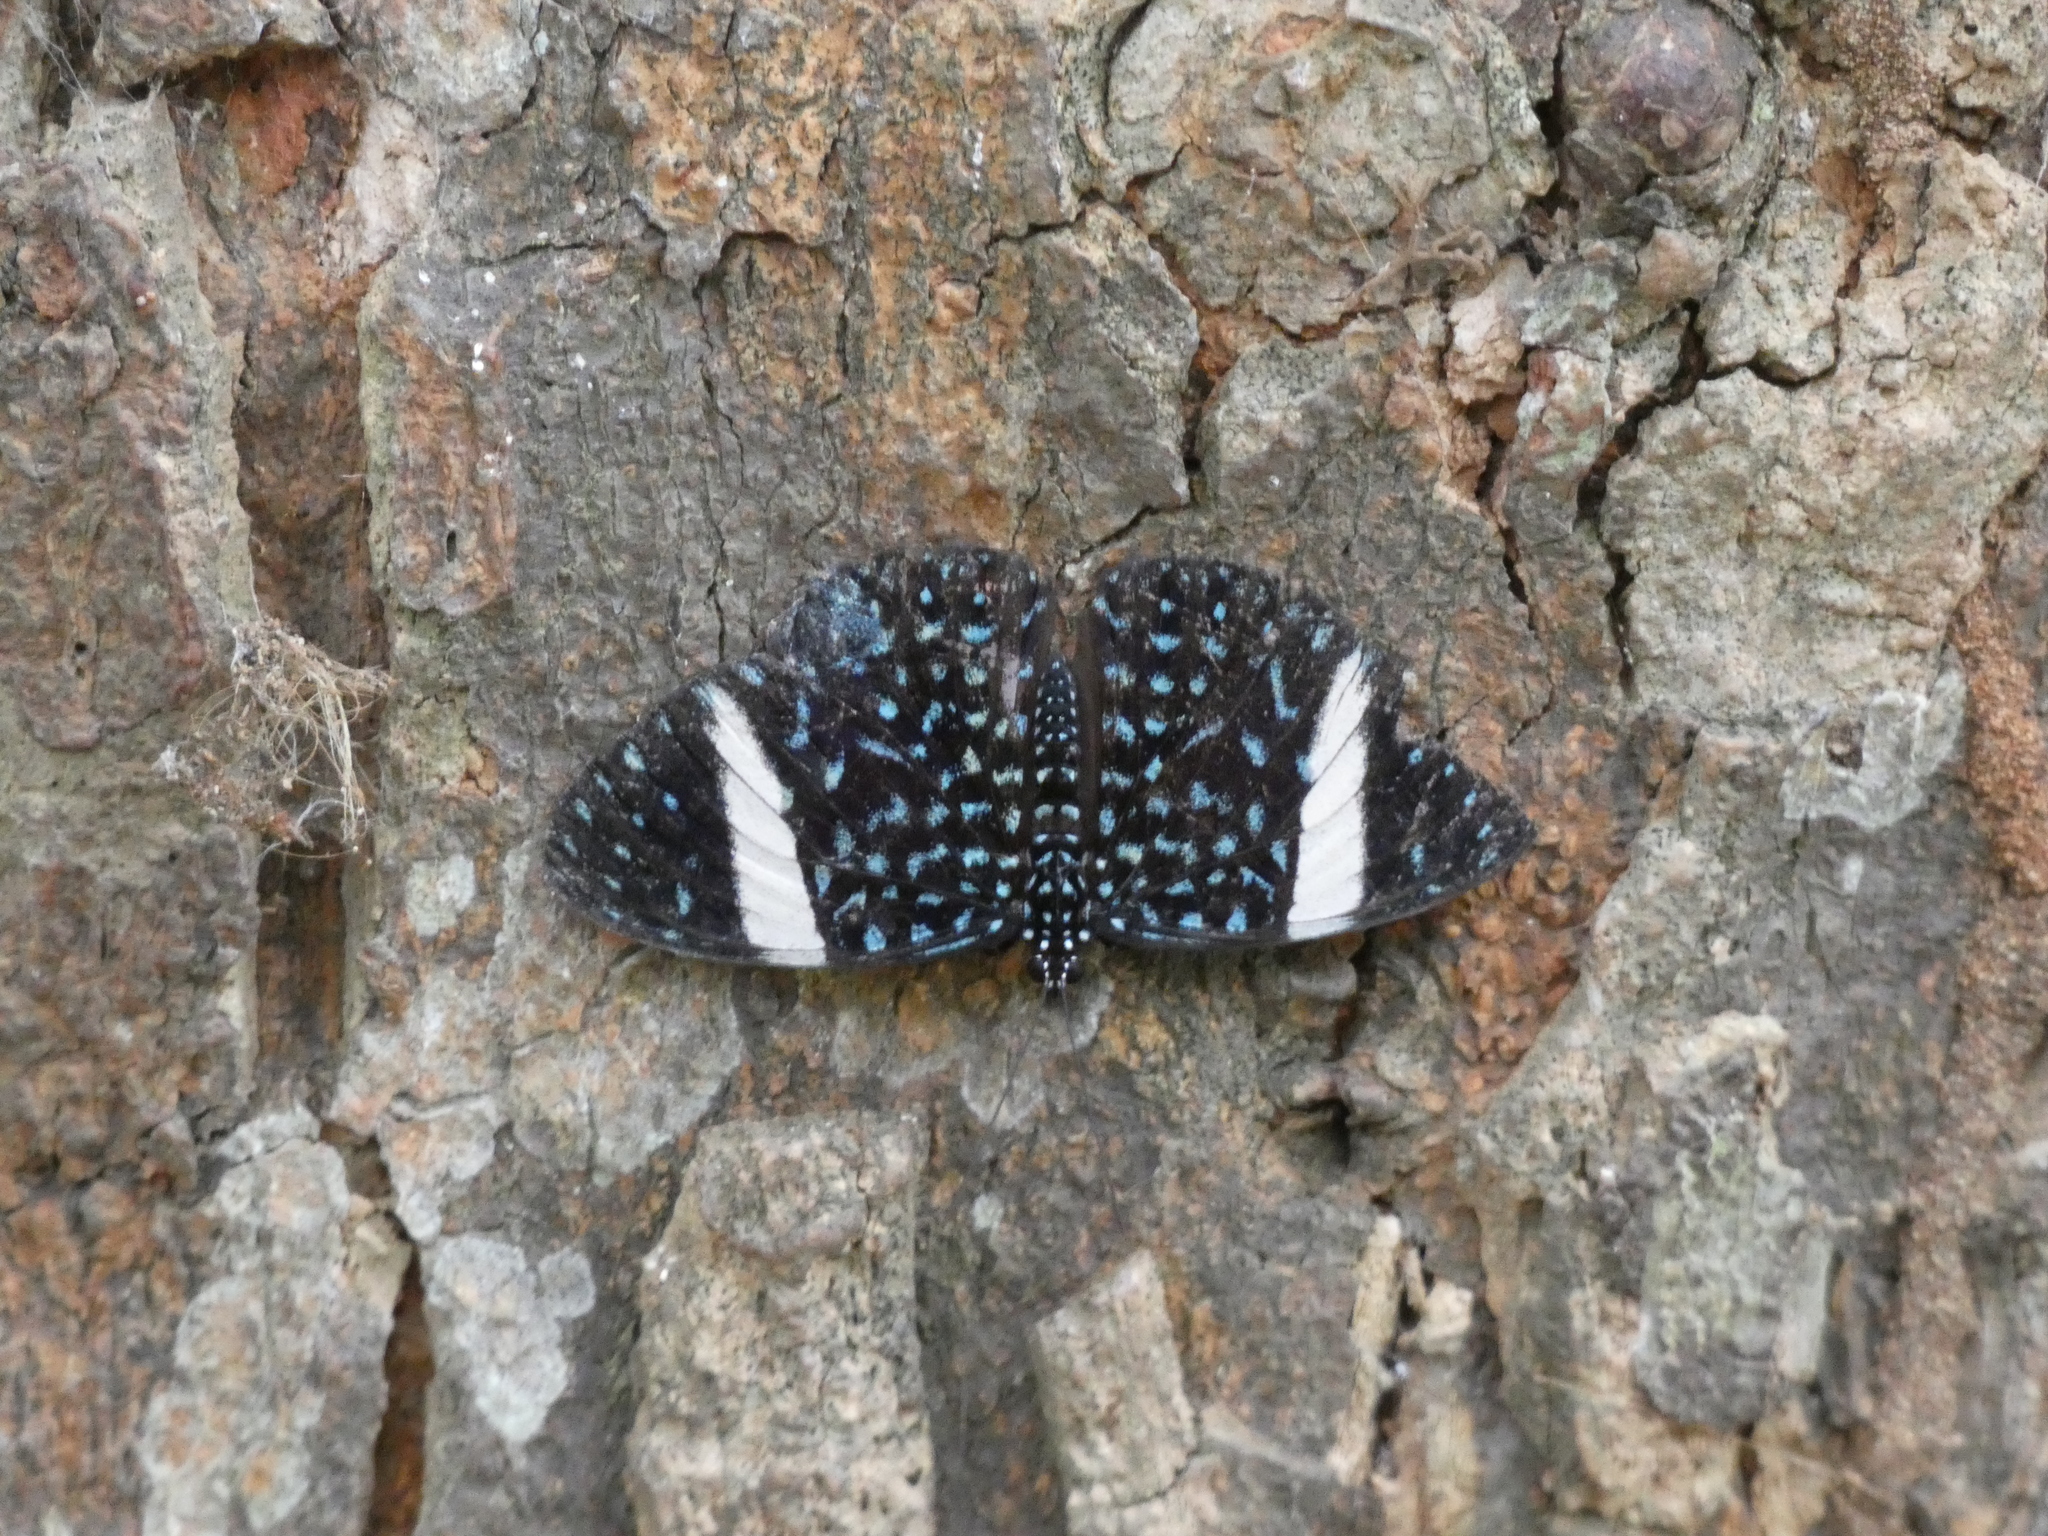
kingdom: Animalia
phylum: Arthropoda
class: Insecta
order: Lepidoptera
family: Nymphalidae
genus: Hamadryas
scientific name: Hamadryas laodamia
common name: Starry night cracker
